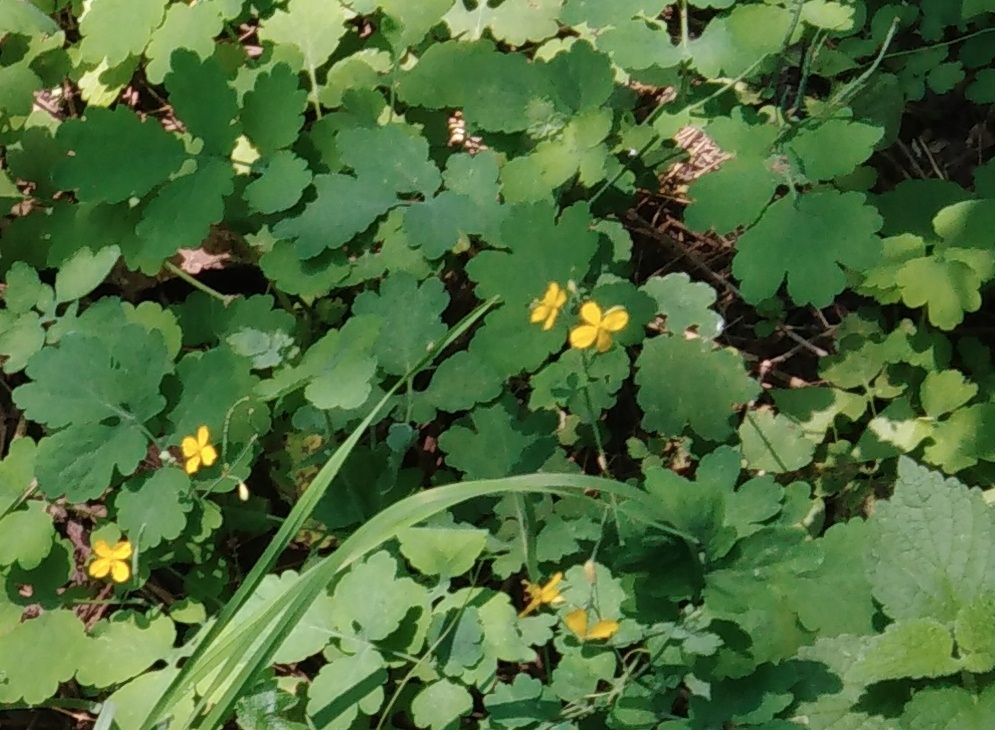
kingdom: Plantae
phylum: Tracheophyta
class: Magnoliopsida
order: Ranunculales
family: Papaveraceae
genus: Chelidonium
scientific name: Chelidonium majus
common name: Greater celandine
